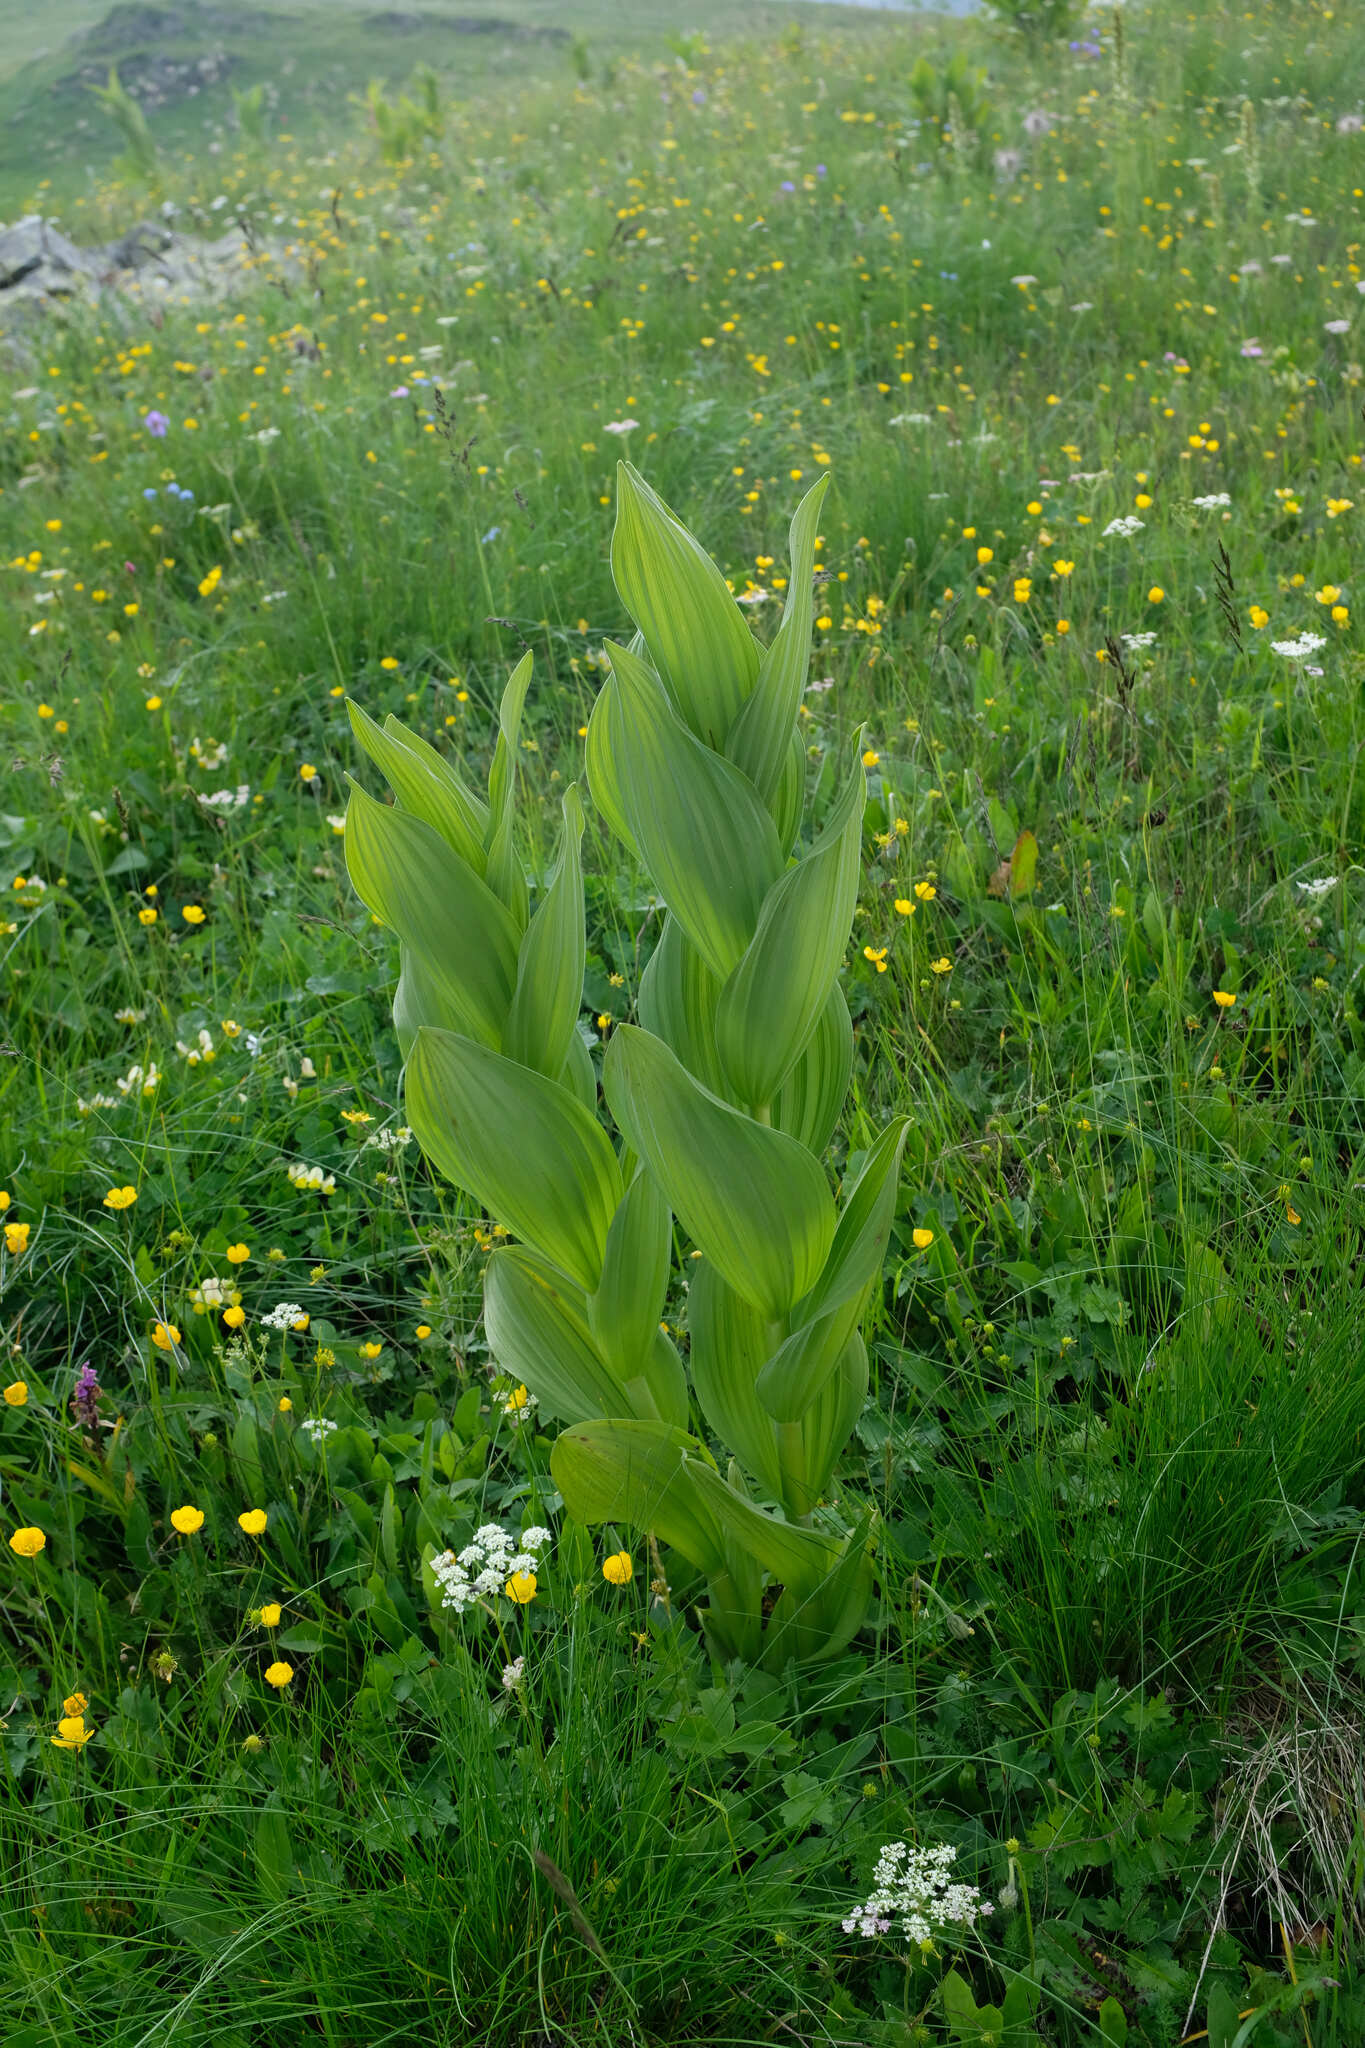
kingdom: Plantae
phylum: Tracheophyta
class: Liliopsida
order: Liliales
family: Melanthiaceae
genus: Veratrum
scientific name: Veratrum lobelianum
